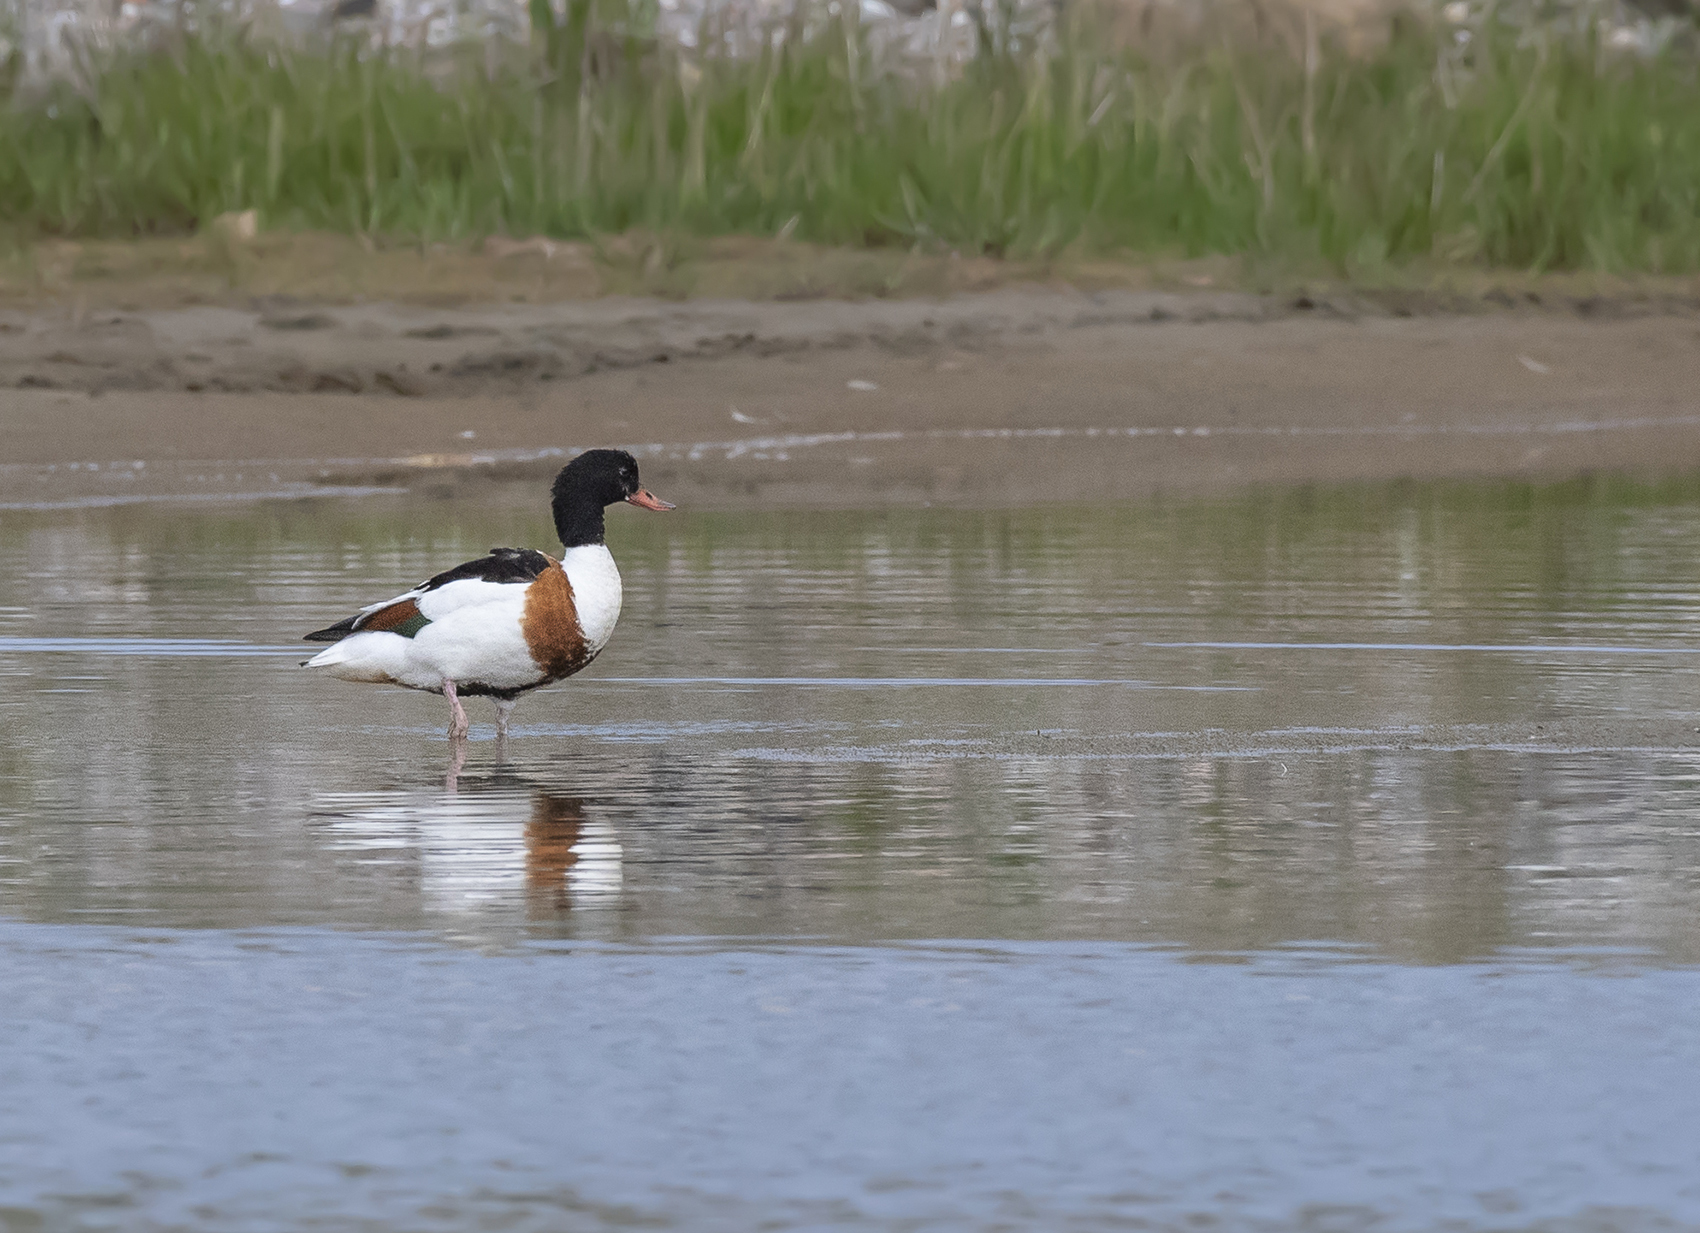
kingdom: Animalia
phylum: Chordata
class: Aves
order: Anseriformes
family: Anatidae
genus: Tadorna
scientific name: Tadorna tadorna
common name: Common shelduck
